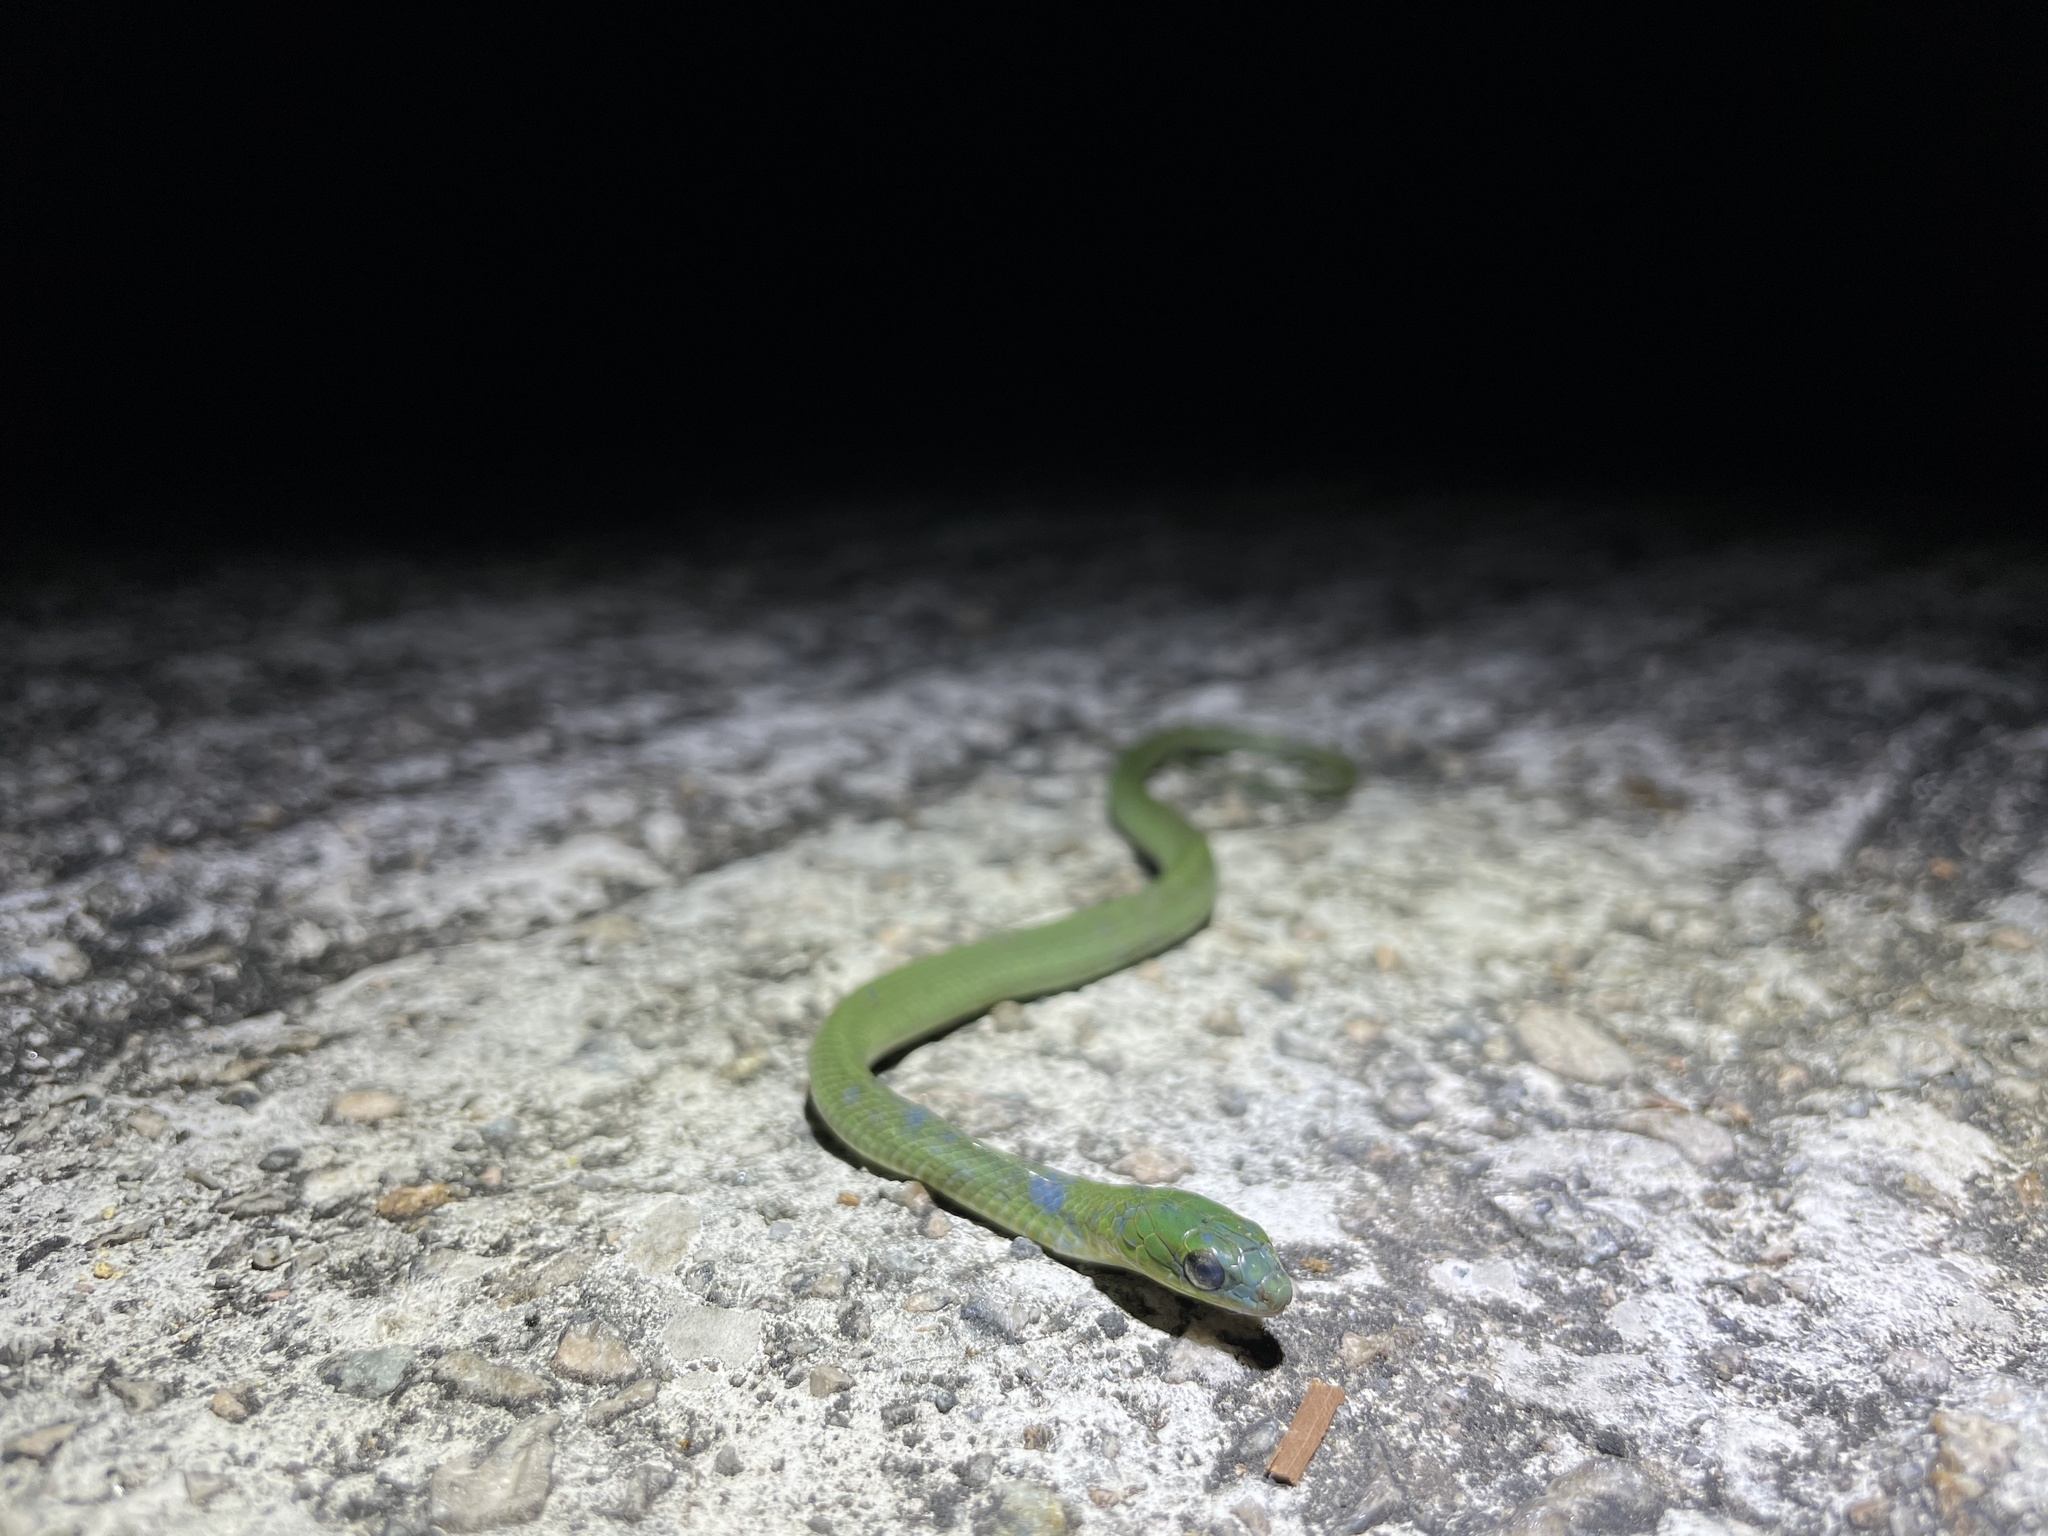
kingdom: Animalia
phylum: Chordata
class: Squamata
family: Colubridae
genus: Ptyas
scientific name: Ptyas major
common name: Chinese green snake
